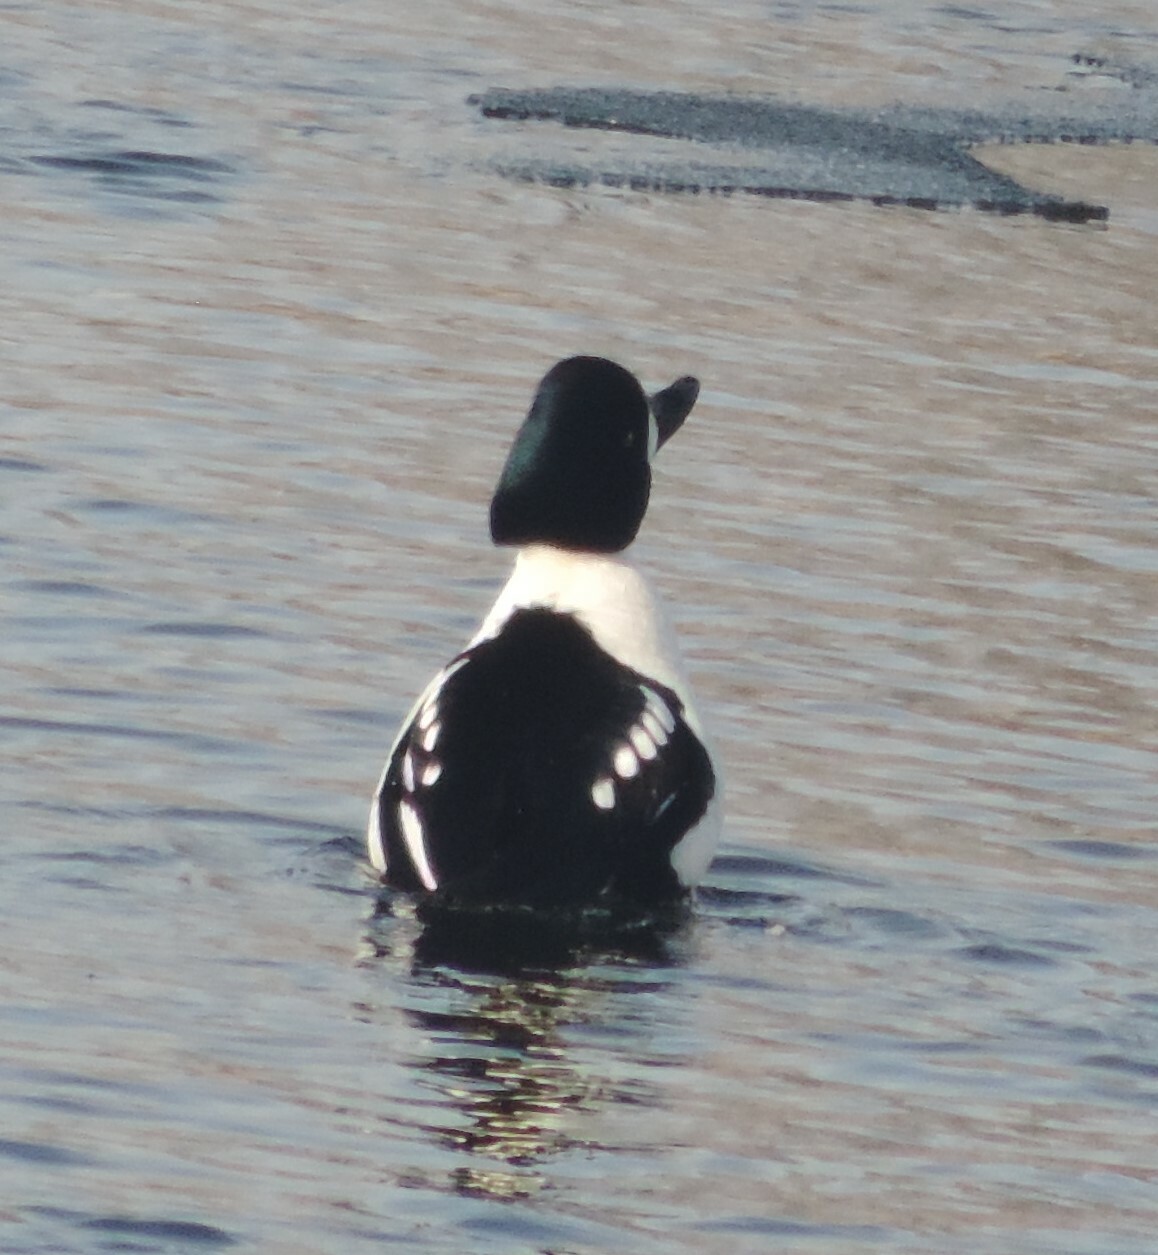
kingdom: Animalia
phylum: Chordata
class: Aves
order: Anseriformes
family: Anatidae
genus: Bucephala
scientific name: Bucephala islandica
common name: Barrow's goldeneye
